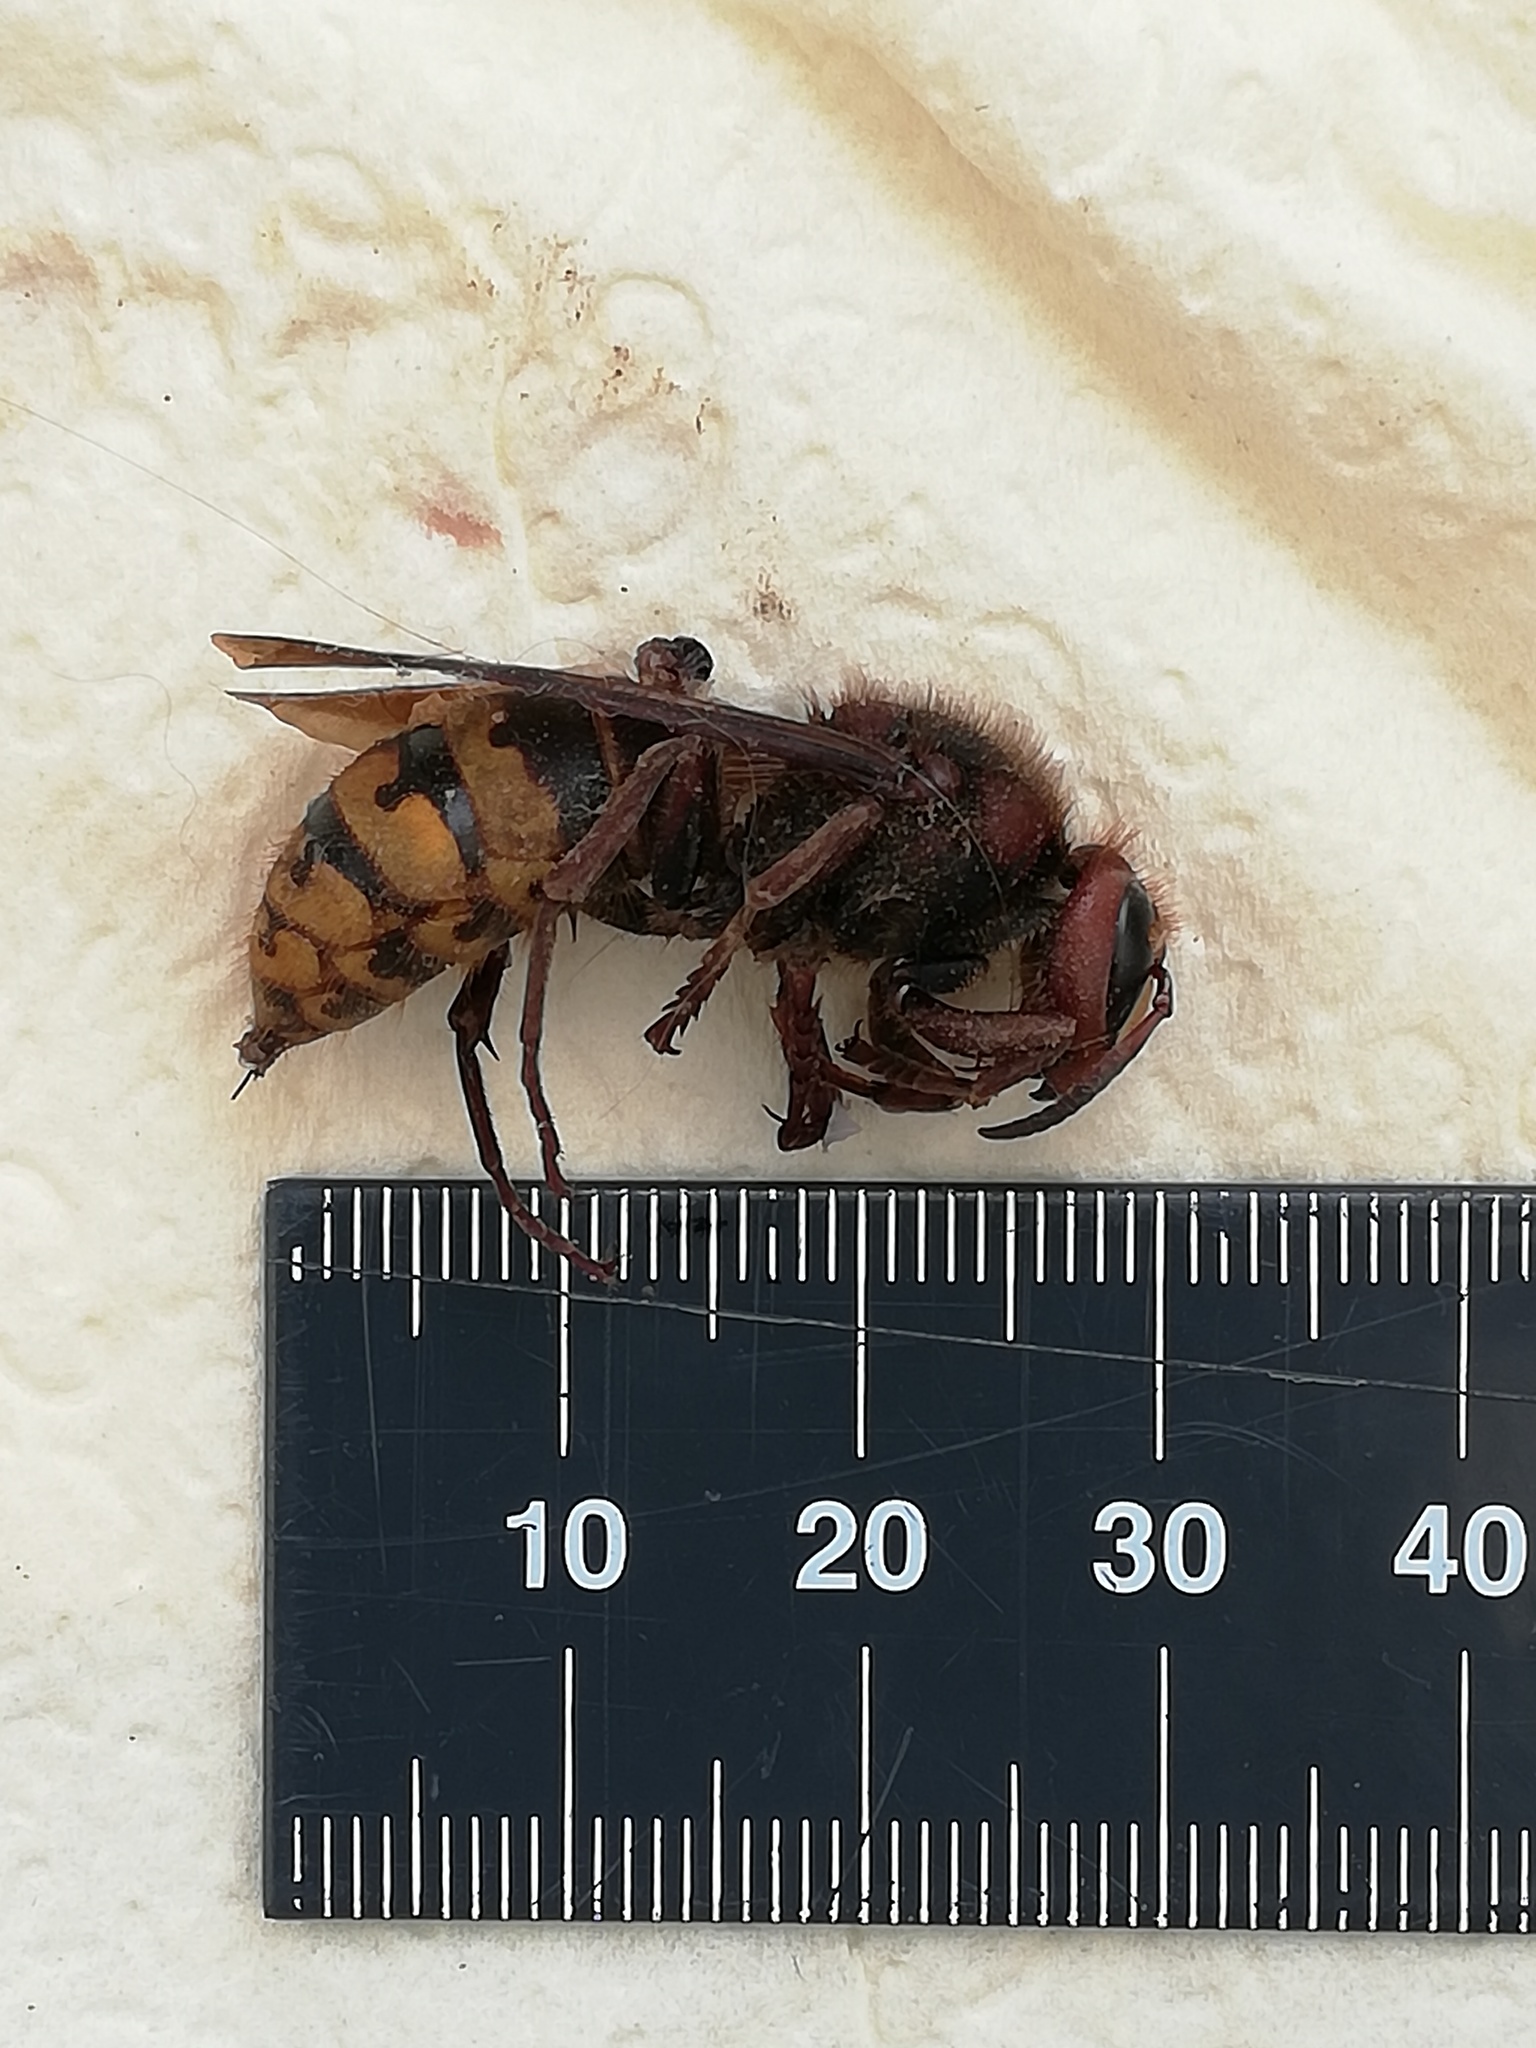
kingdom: Animalia
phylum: Arthropoda
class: Insecta
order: Hymenoptera
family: Vespidae
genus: Vespa
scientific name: Vespa crabro
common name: Hornet
